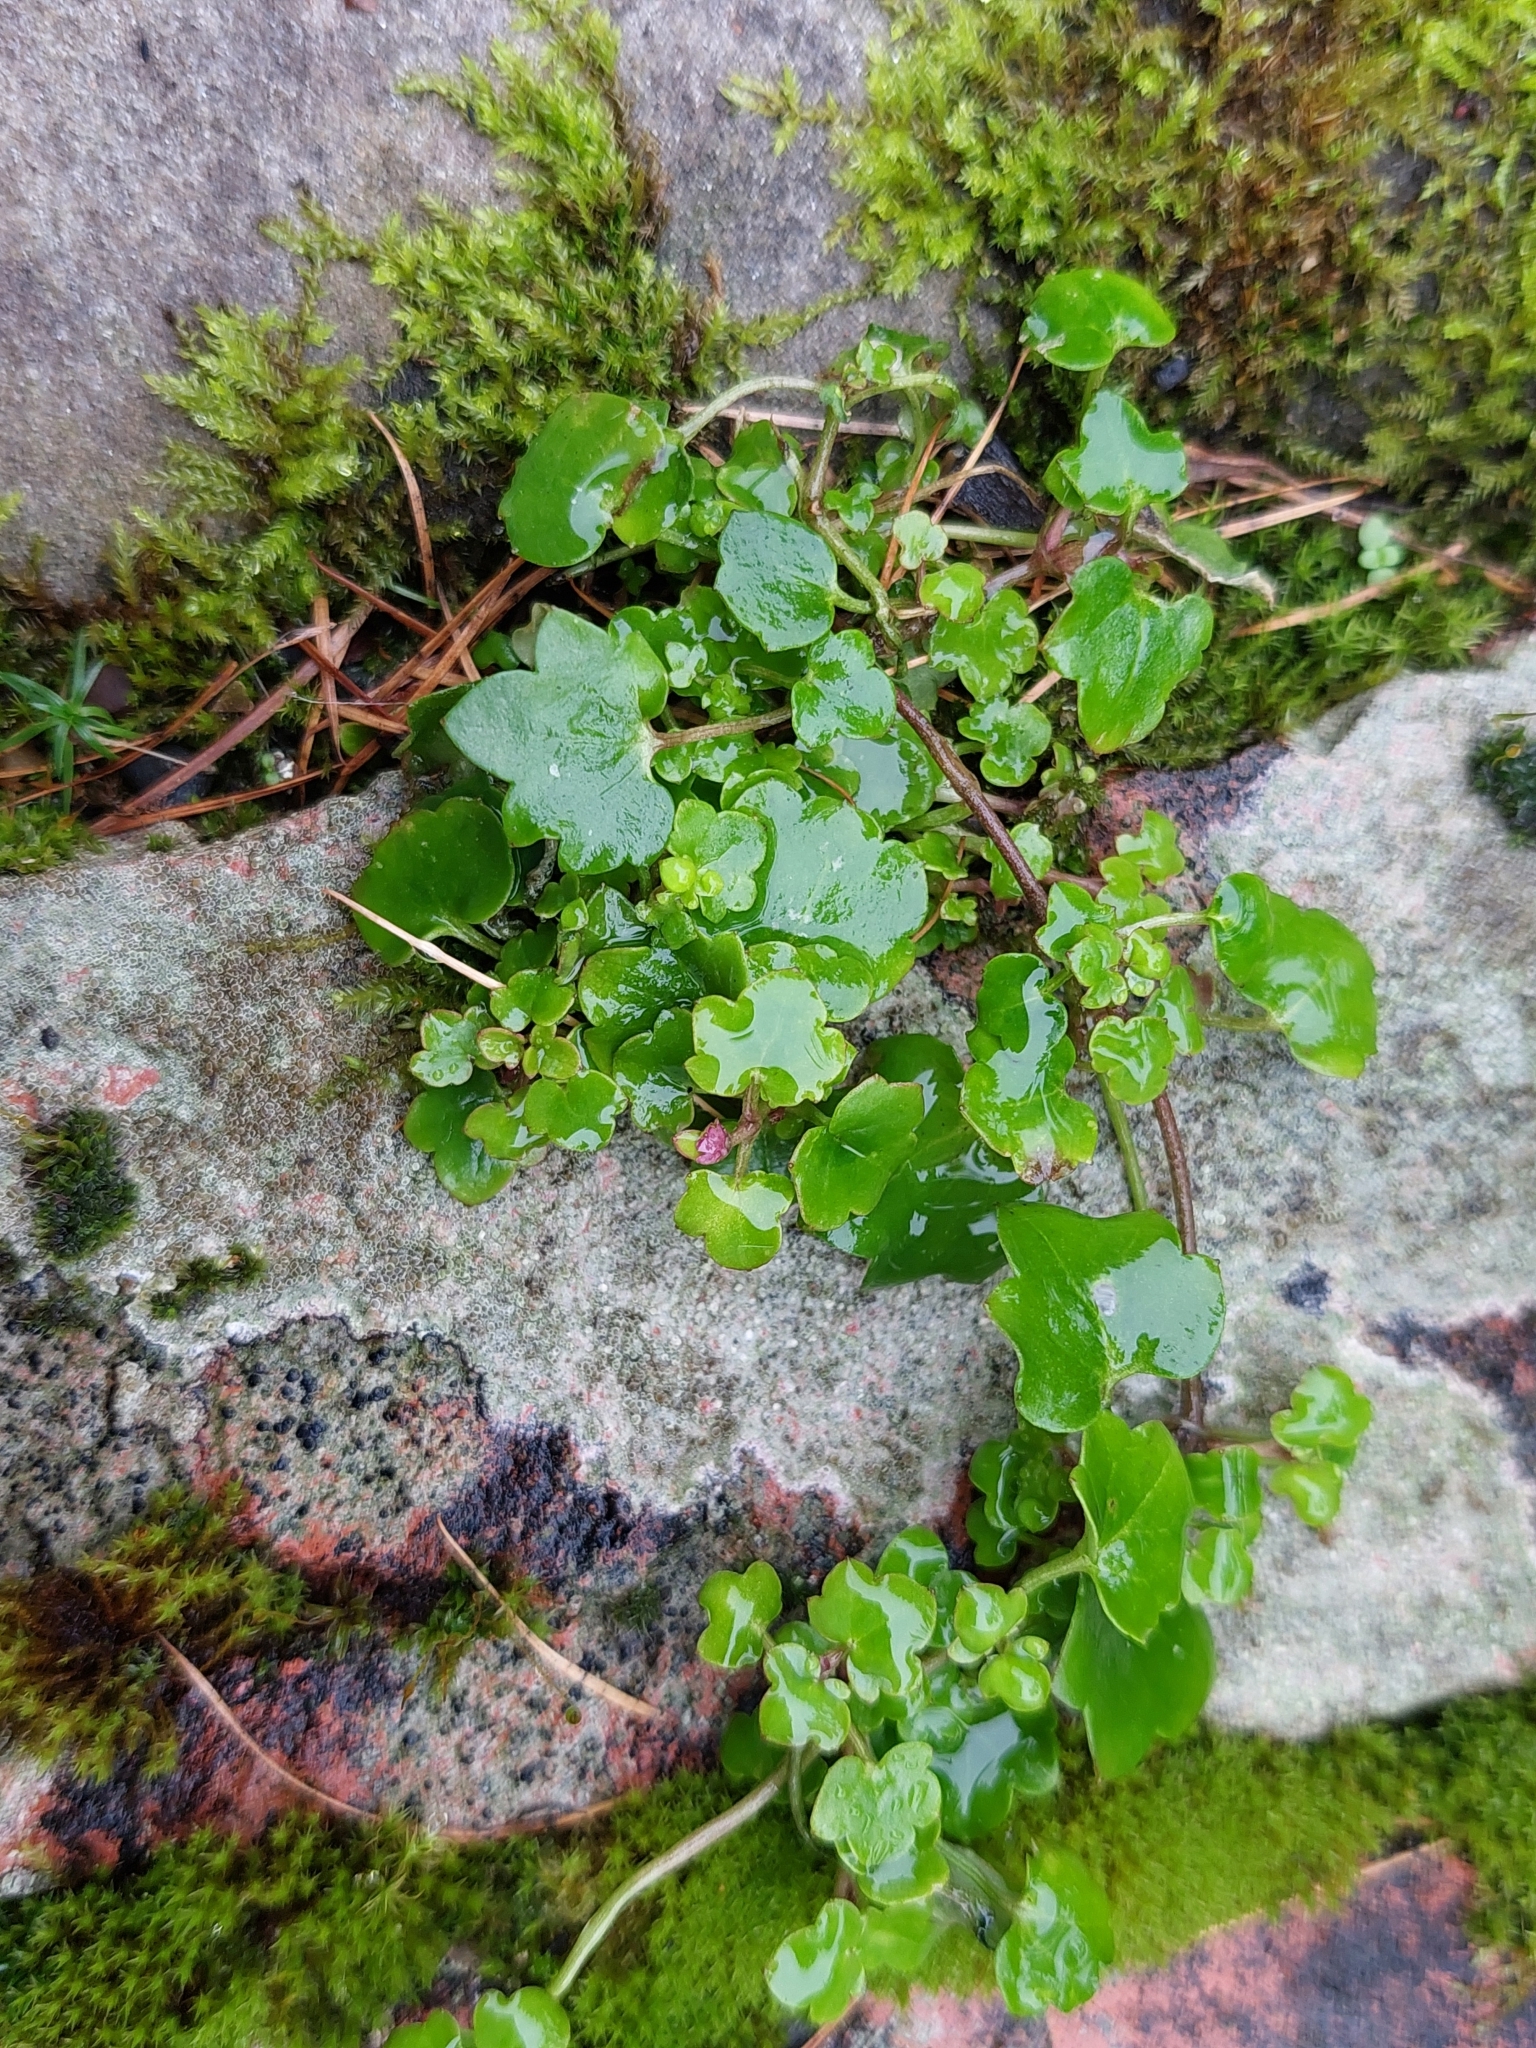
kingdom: Plantae
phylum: Tracheophyta
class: Magnoliopsida
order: Lamiales
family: Plantaginaceae
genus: Cymbalaria
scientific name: Cymbalaria muralis
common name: Ivy-leaved toadflax
